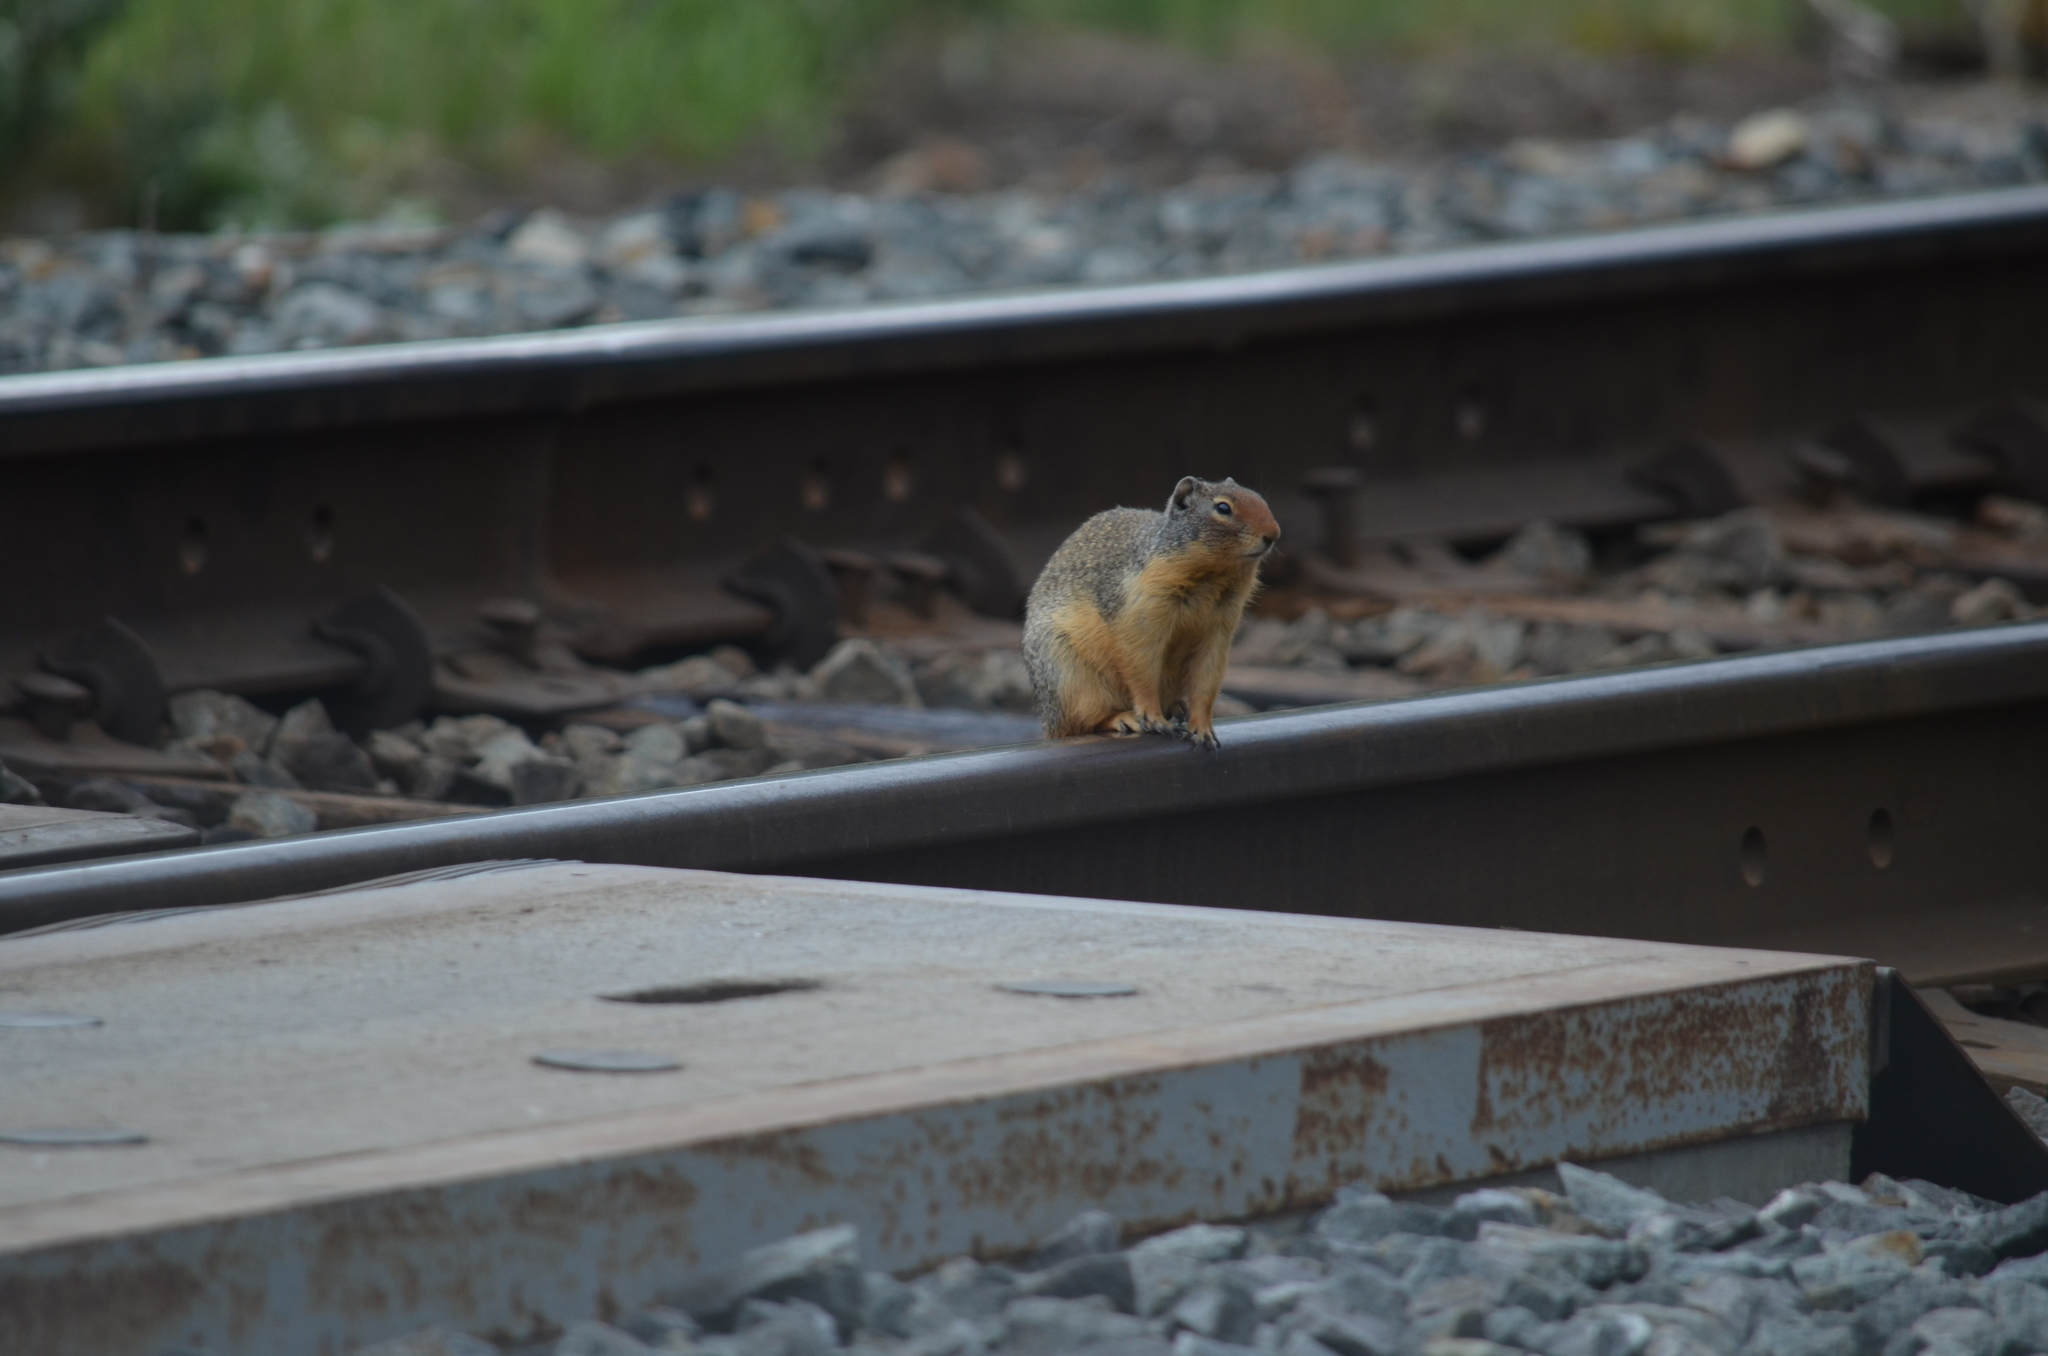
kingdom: Animalia
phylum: Chordata
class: Mammalia
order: Rodentia
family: Sciuridae
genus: Urocitellus
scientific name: Urocitellus columbianus
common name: Columbian ground squirrel
